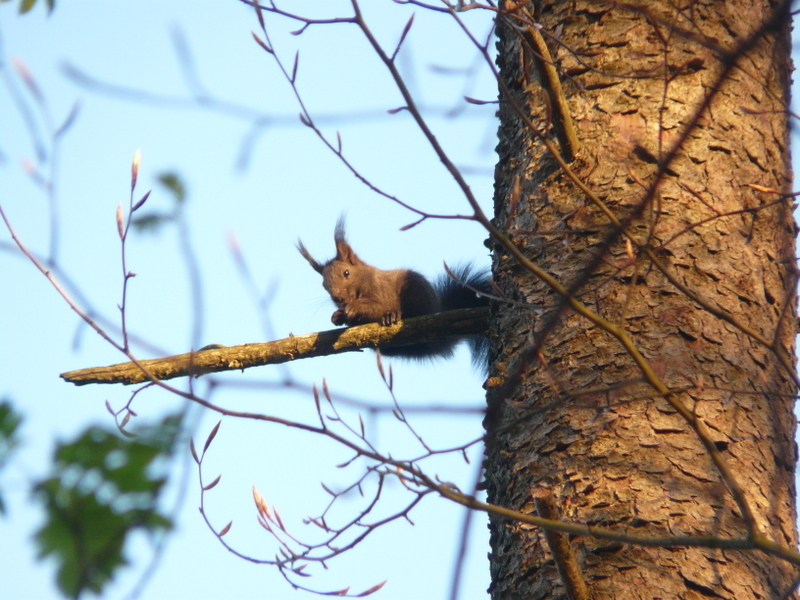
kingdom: Animalia
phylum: Chordata
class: Mammalia
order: Rodentia
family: Sciuridae
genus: Sciurus
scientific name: Sciurus vulgaris
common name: Eurasian red squirrel
